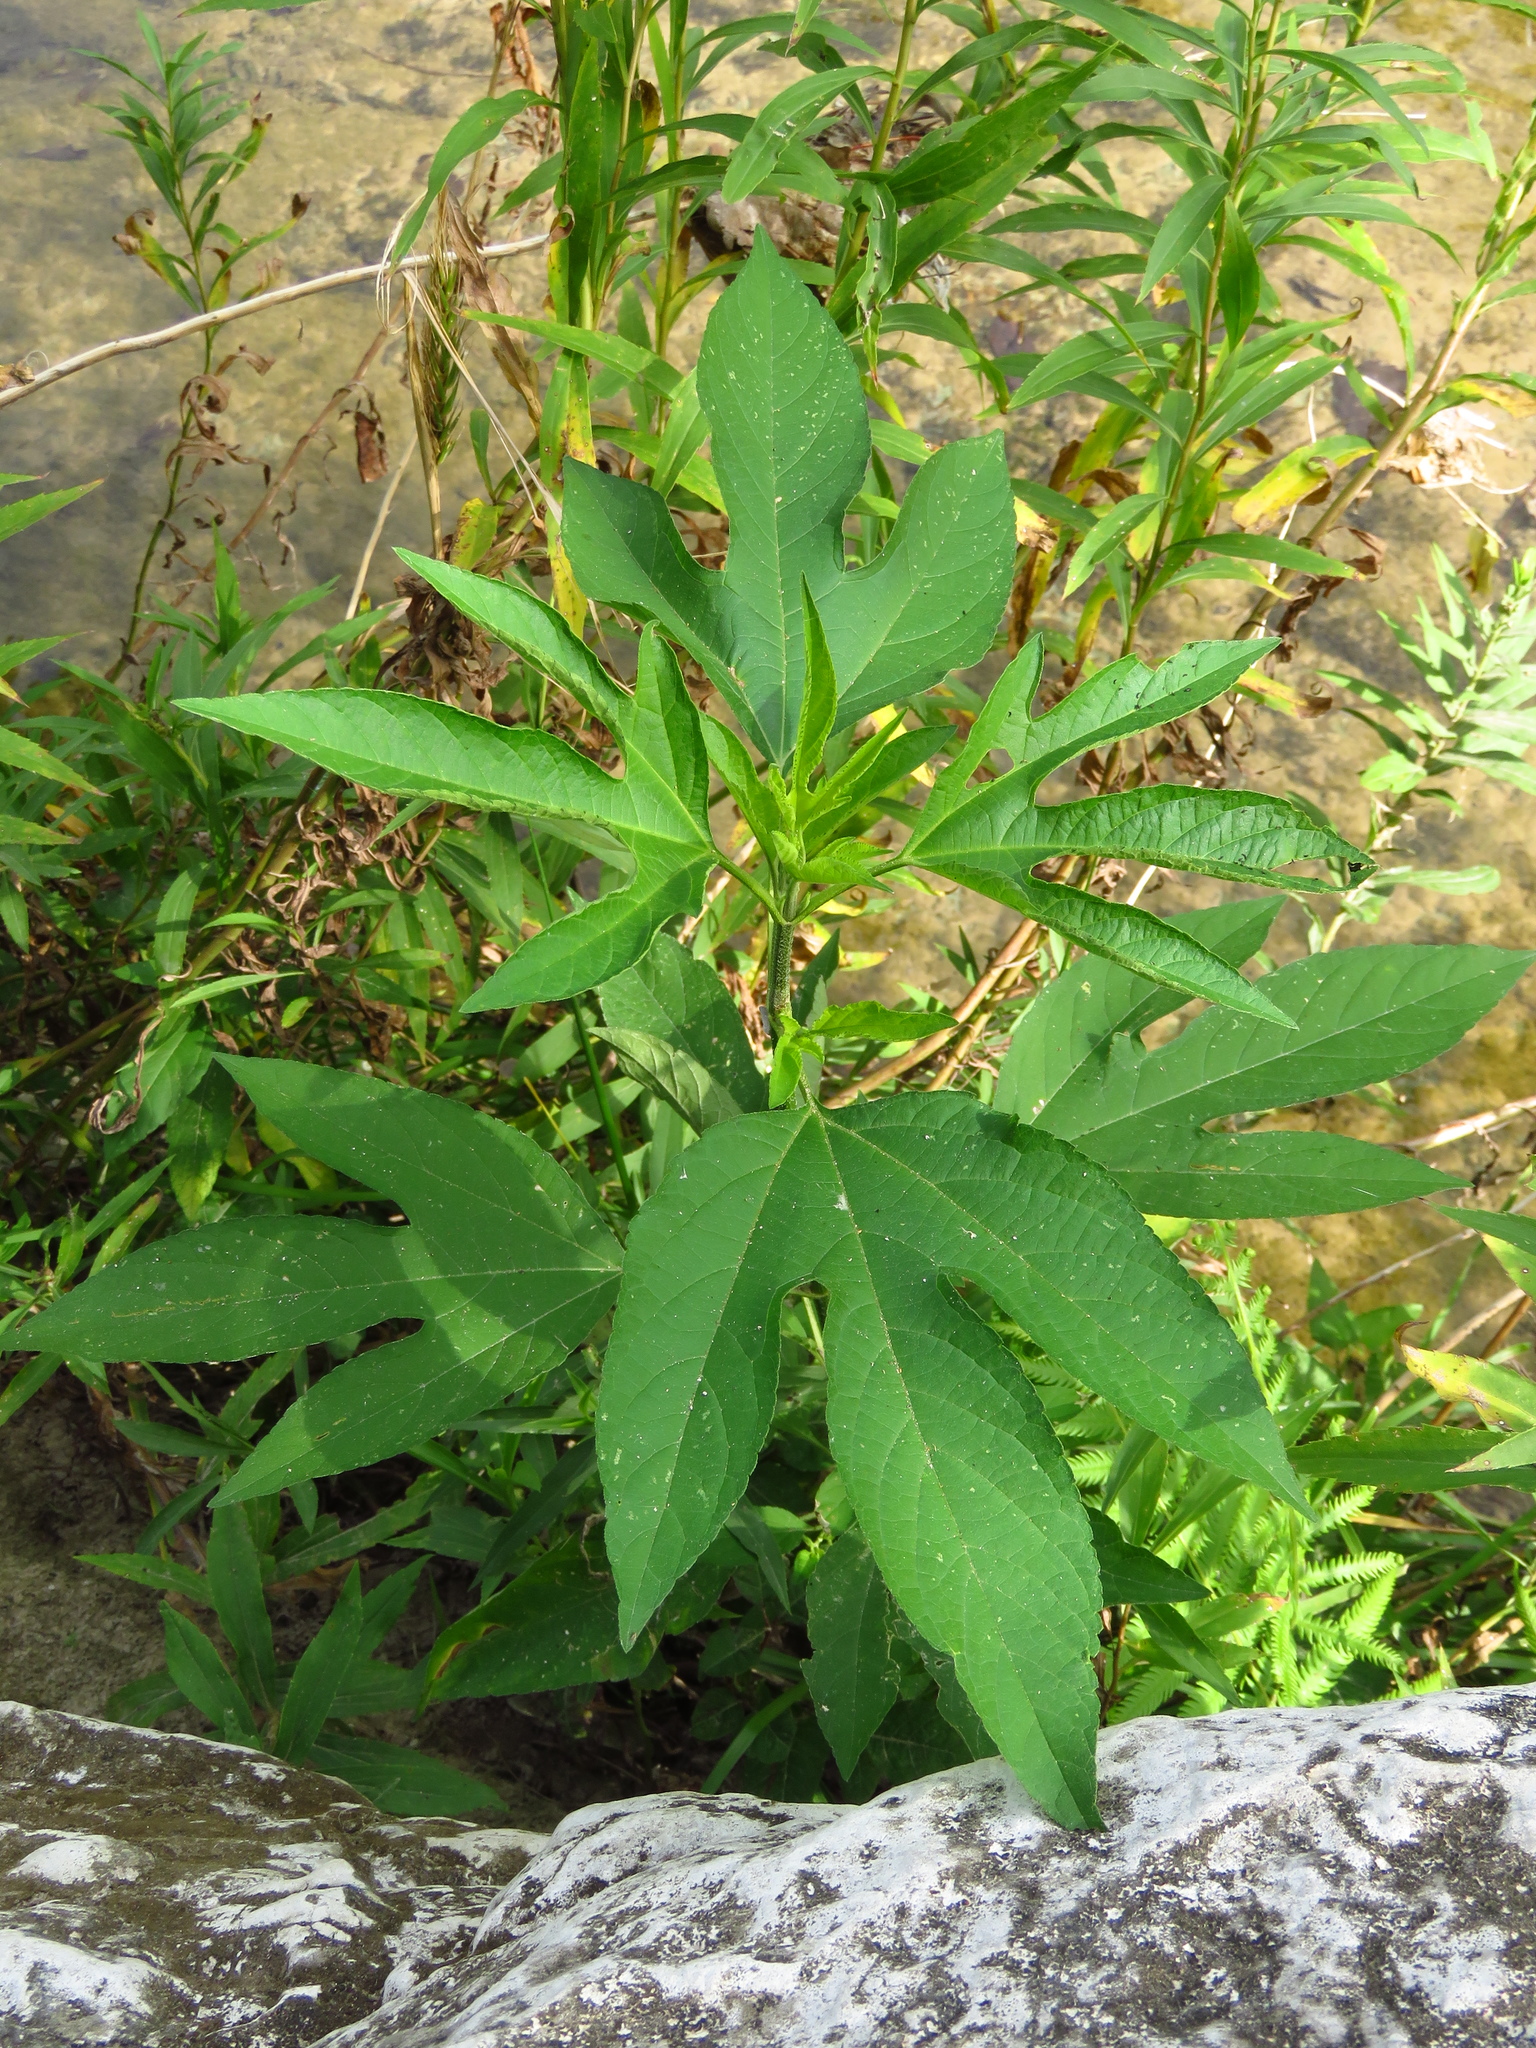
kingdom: Plantae
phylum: Tracheophyta
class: Magnoliopsida
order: Asterales
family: Asteraceae
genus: Ambrosia
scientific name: Ambrosia trifida
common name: Giant ragweed
